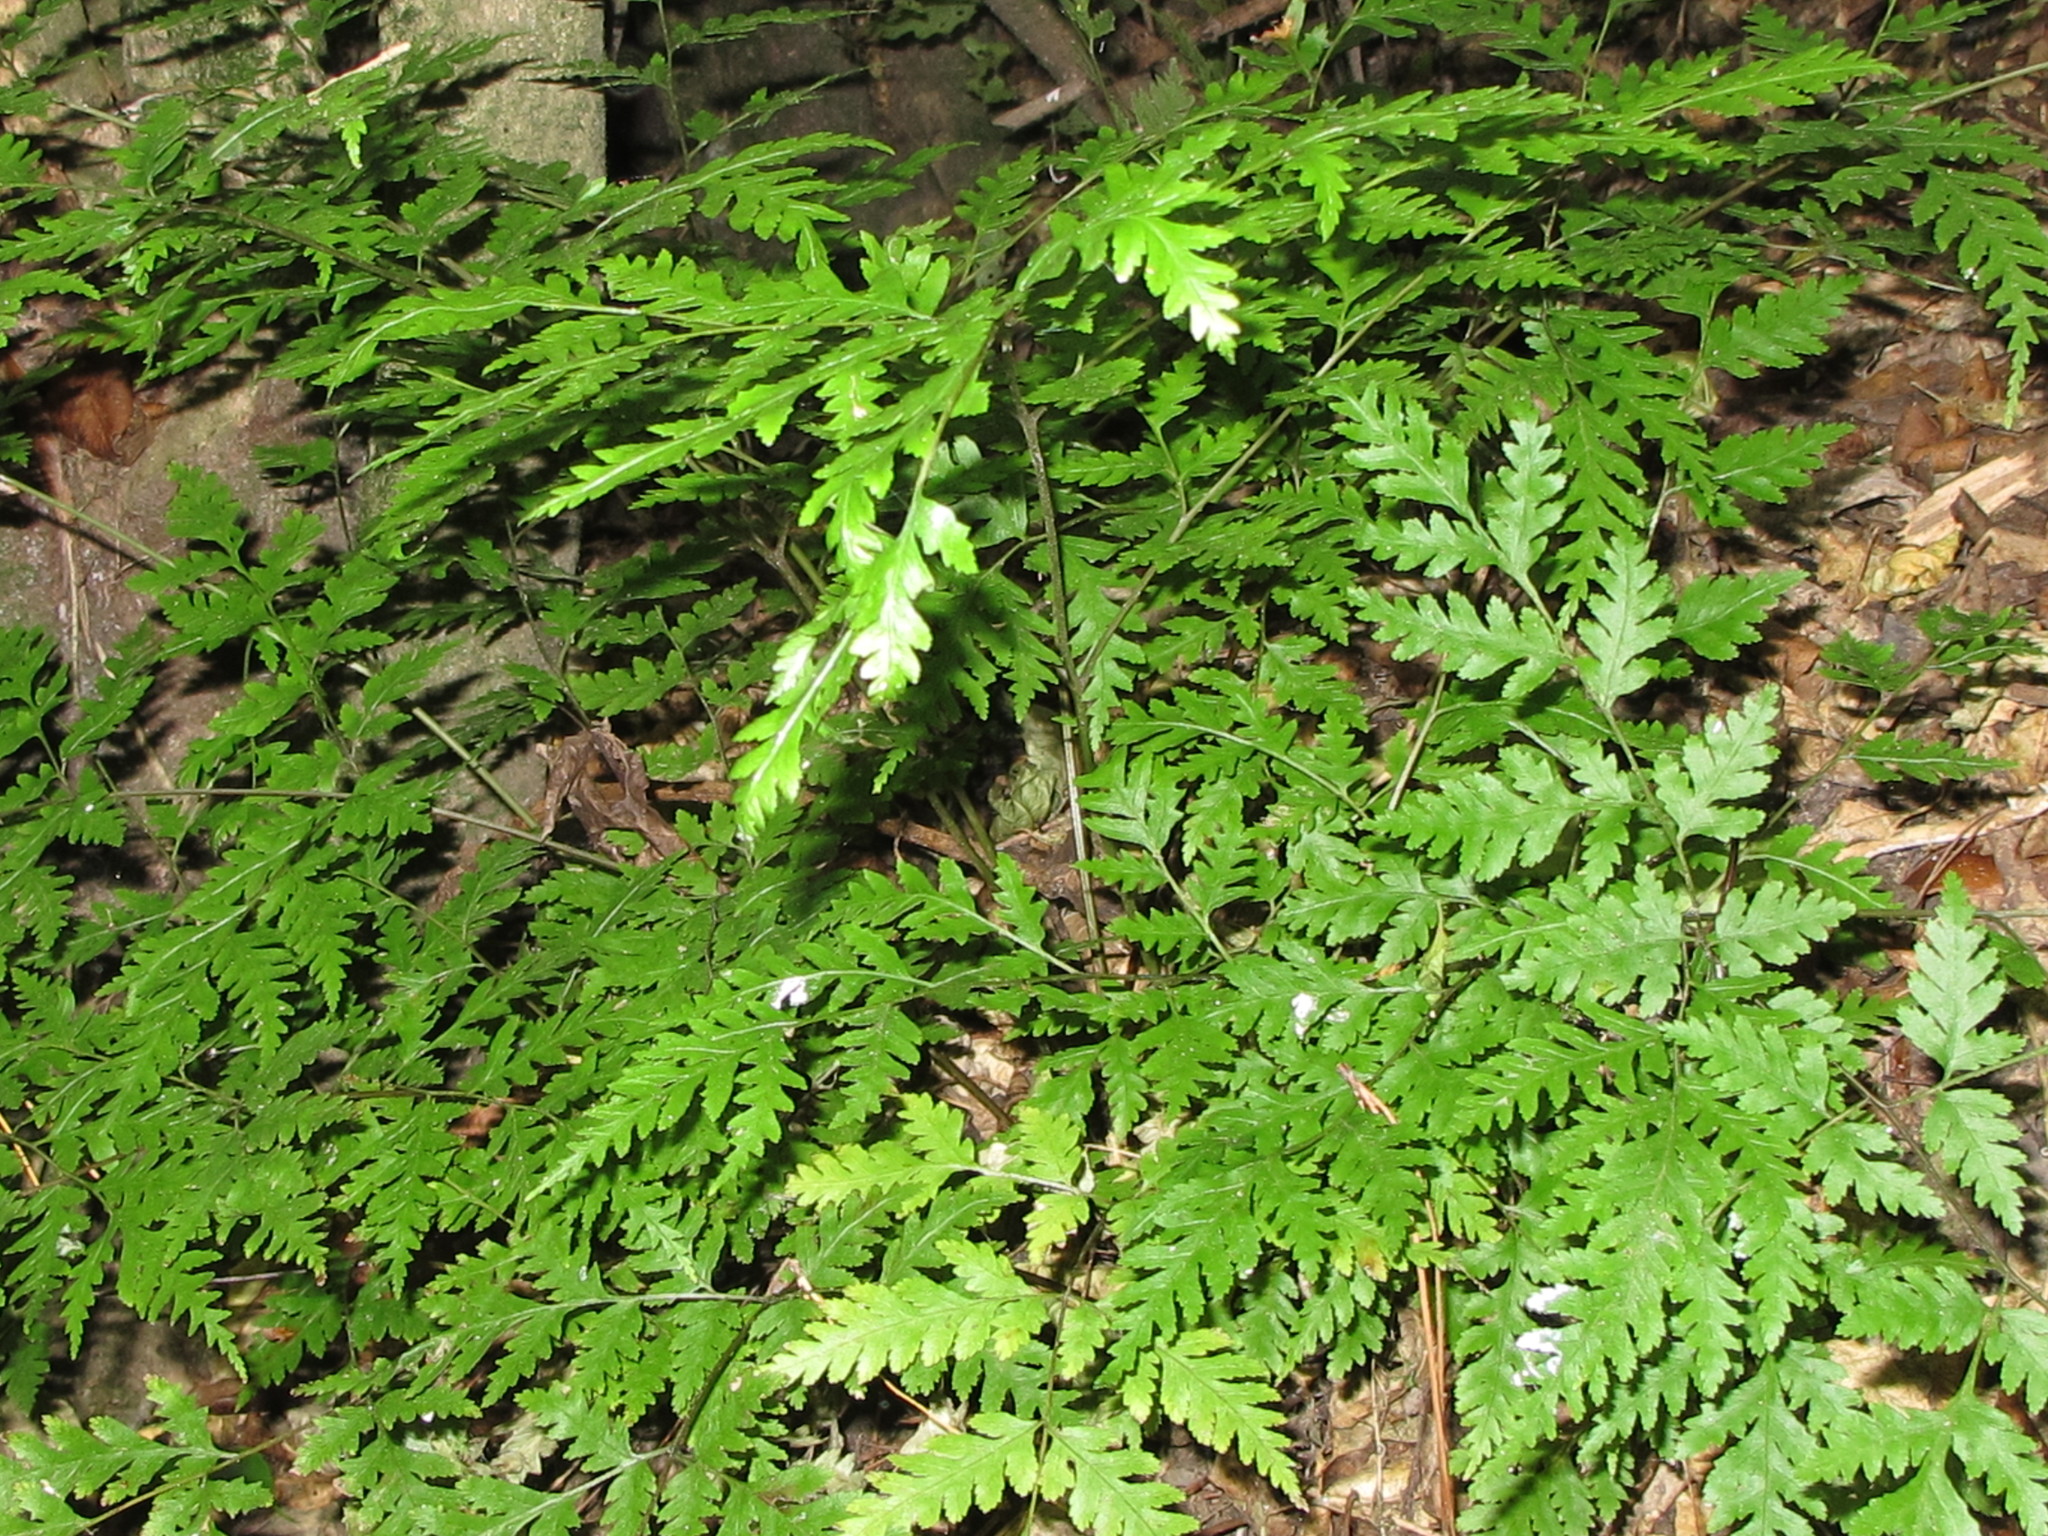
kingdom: Plantae
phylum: Tracheophyta
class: Polypodiopsida
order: Polypodiales
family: Pteridaceae
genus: Pteris
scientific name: Pteris macilenta
